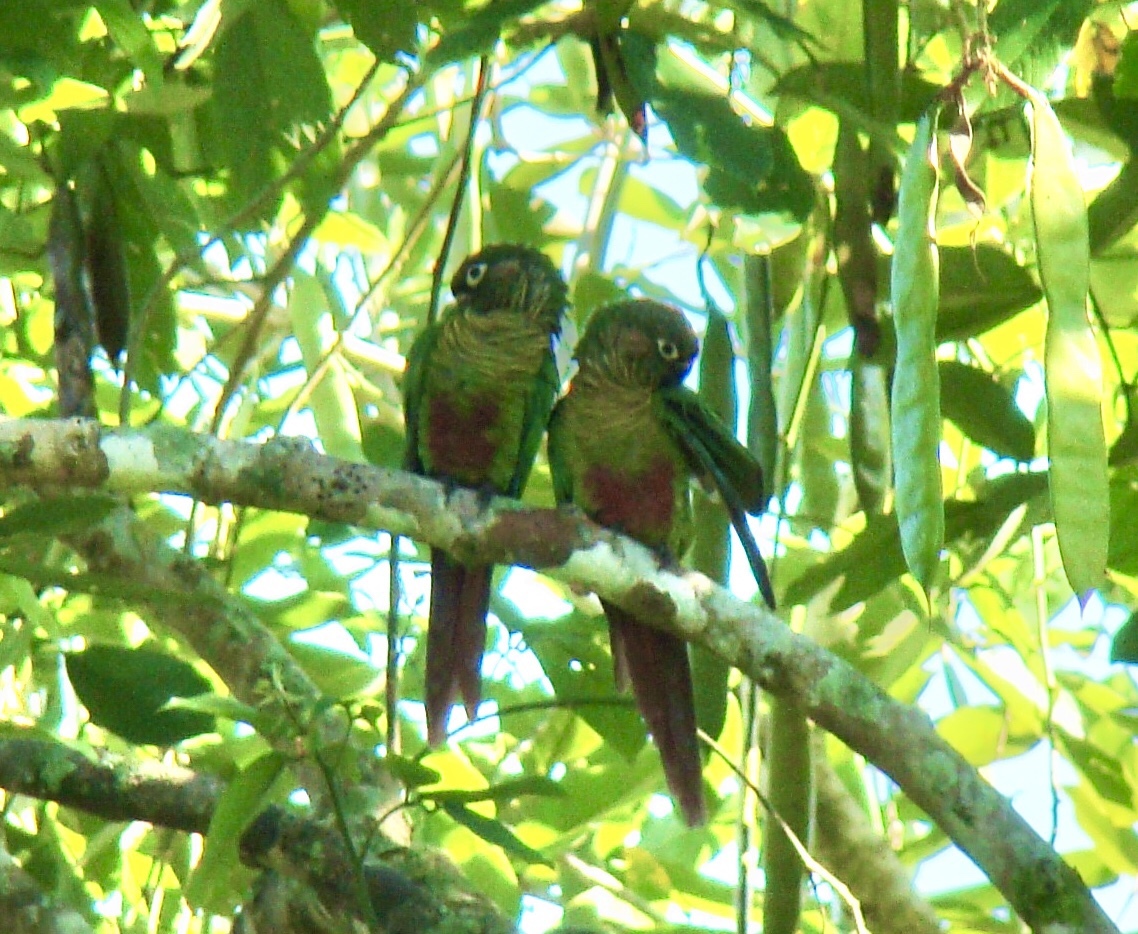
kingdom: Animalia
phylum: Chordata
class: Aves
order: Psittaciformes
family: Psittacidae
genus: Pyrrhura
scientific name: Pyrrhura frontalis
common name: Maroon-bellied parakeet
